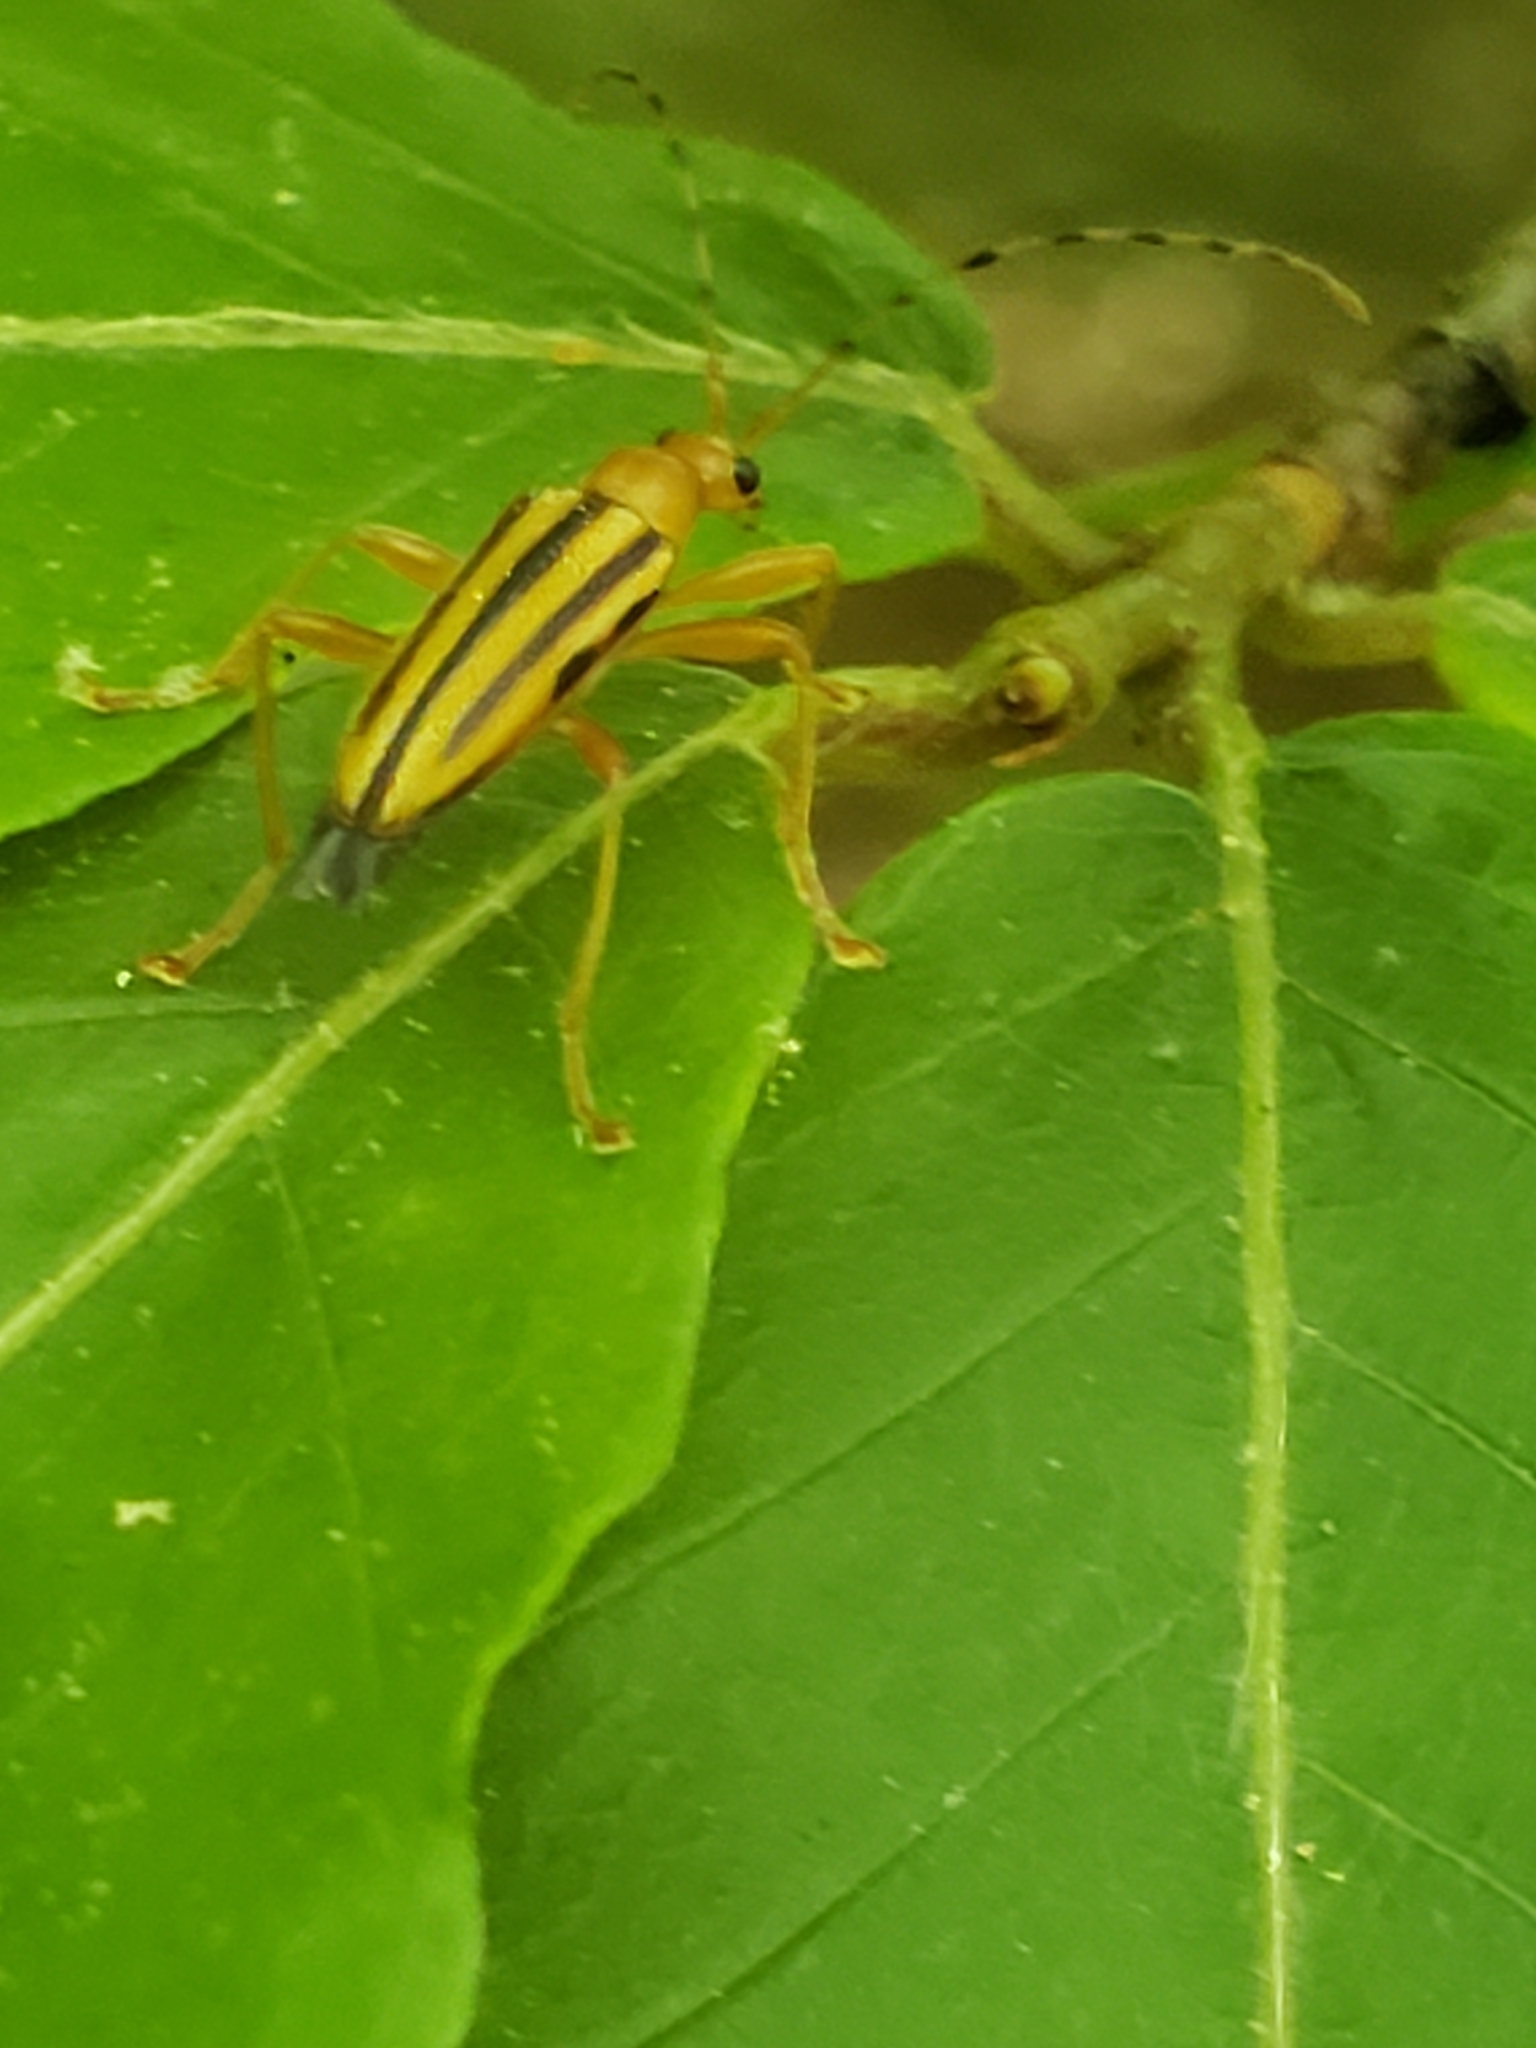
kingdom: Animalia
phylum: Arthropoda
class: Insecta
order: Coleoptera
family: Cerambycidae
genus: Metacmaeops
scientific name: Metacmaeops vittata
